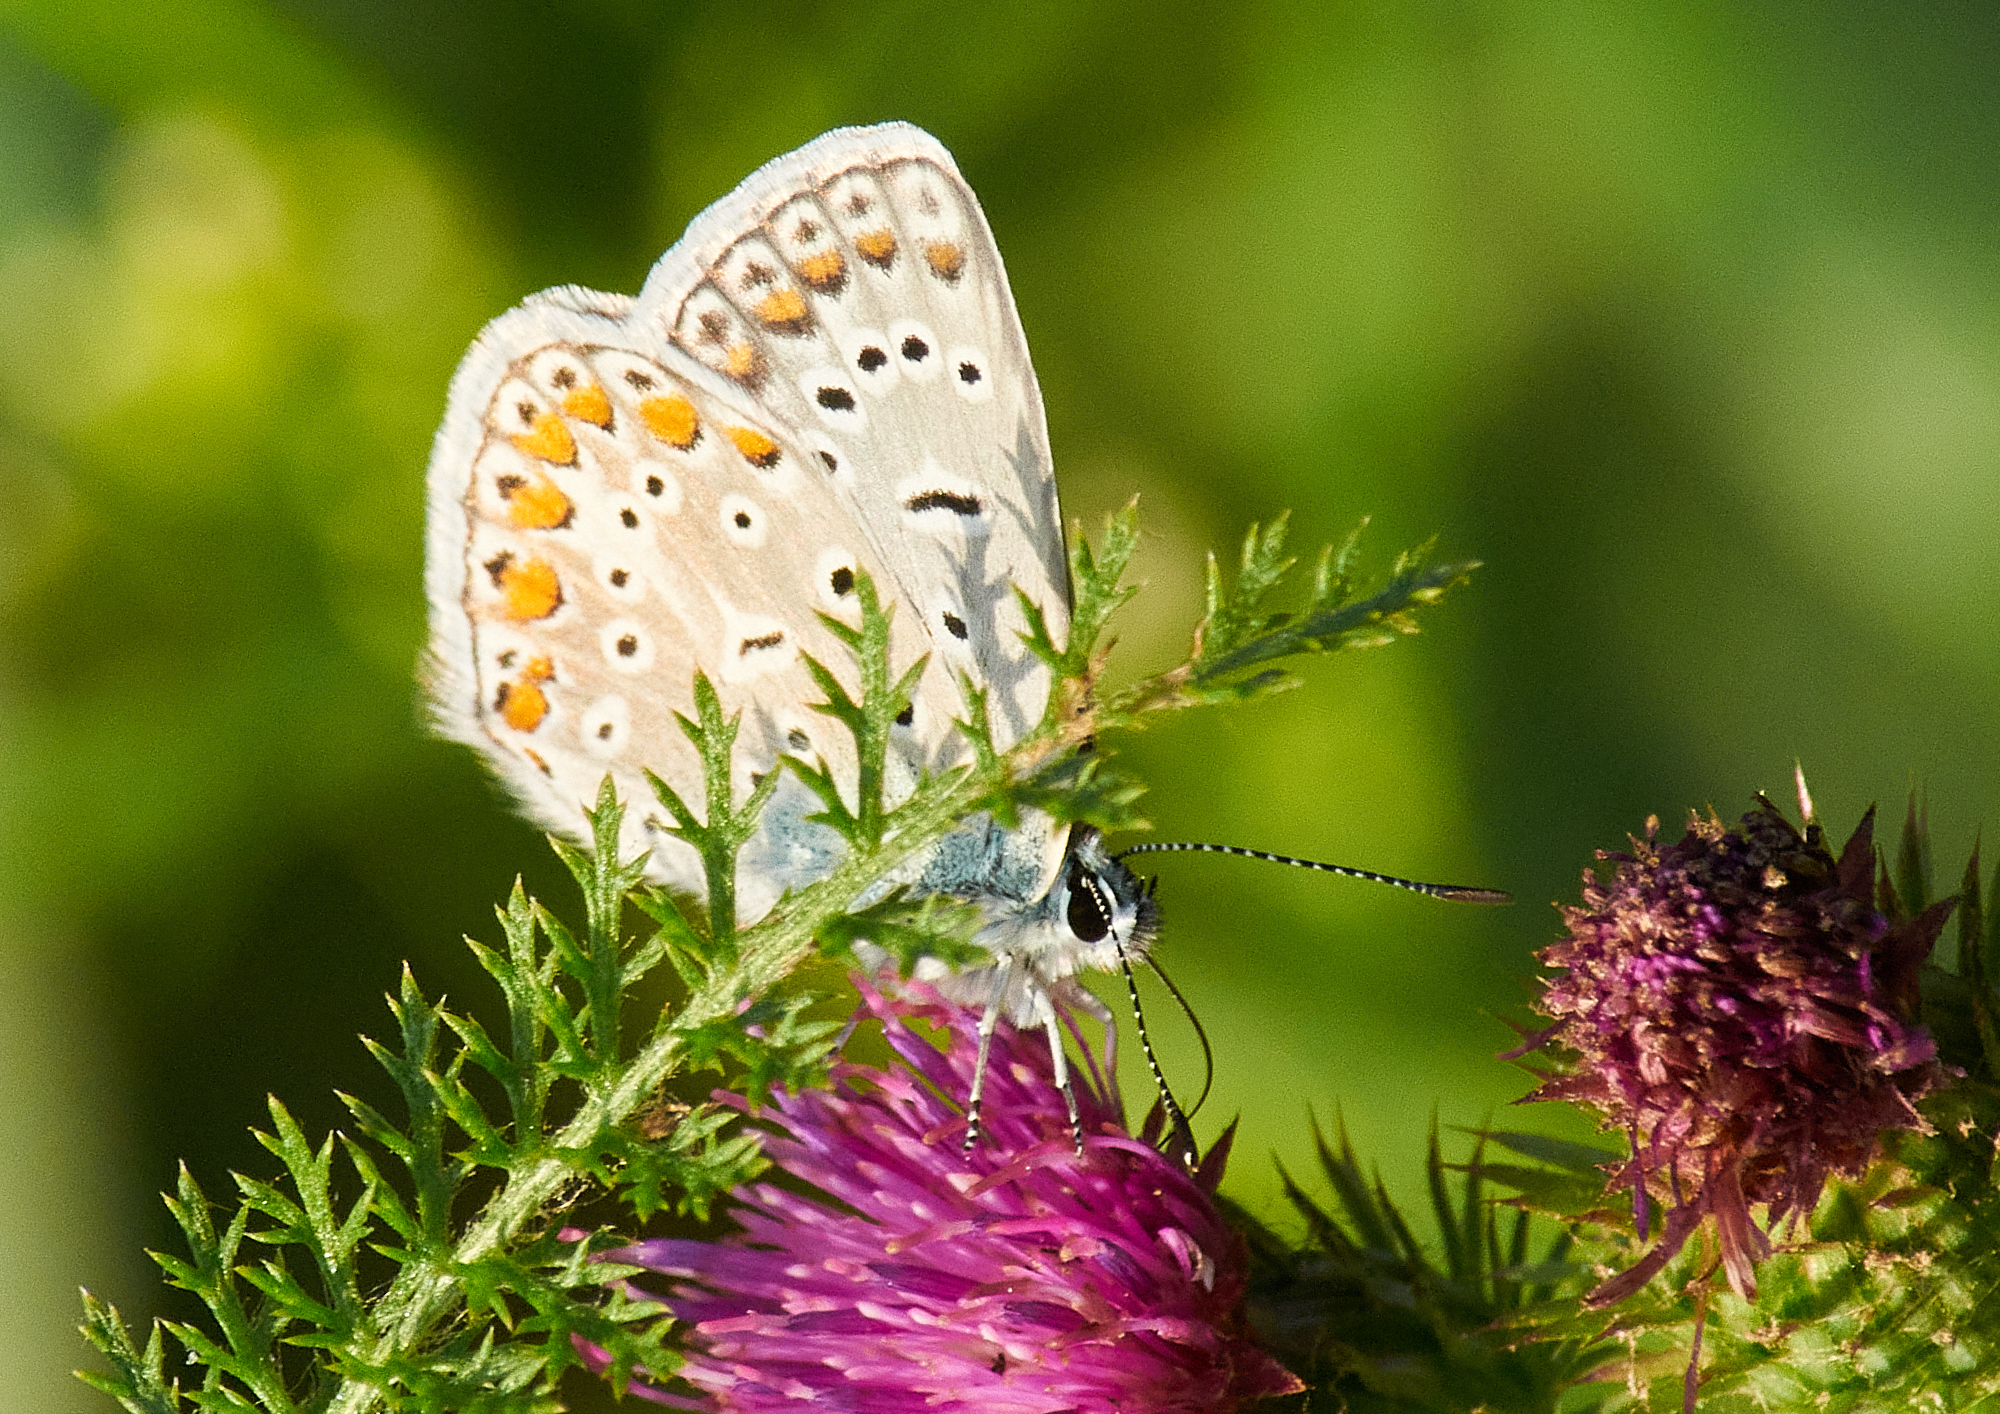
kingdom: Animalia
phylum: Arthropoda
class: Insecta
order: Lepidoptera
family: Lycaenidae
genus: Polyommatus
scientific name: Polyommatus icarus
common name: Common blue
